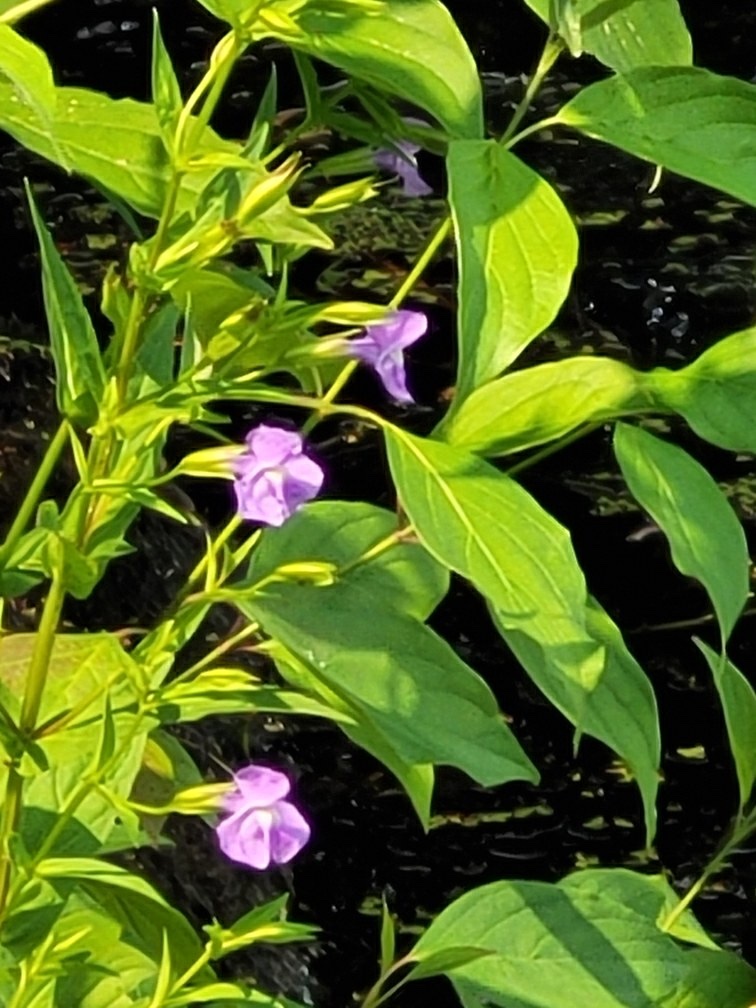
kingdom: Plantae
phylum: Tracheophyta
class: Magnoliopsida
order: Lamiales
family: Phrymaceae
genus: Mimulus
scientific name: Mimulus ringens
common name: Allegheny monkeyflower
